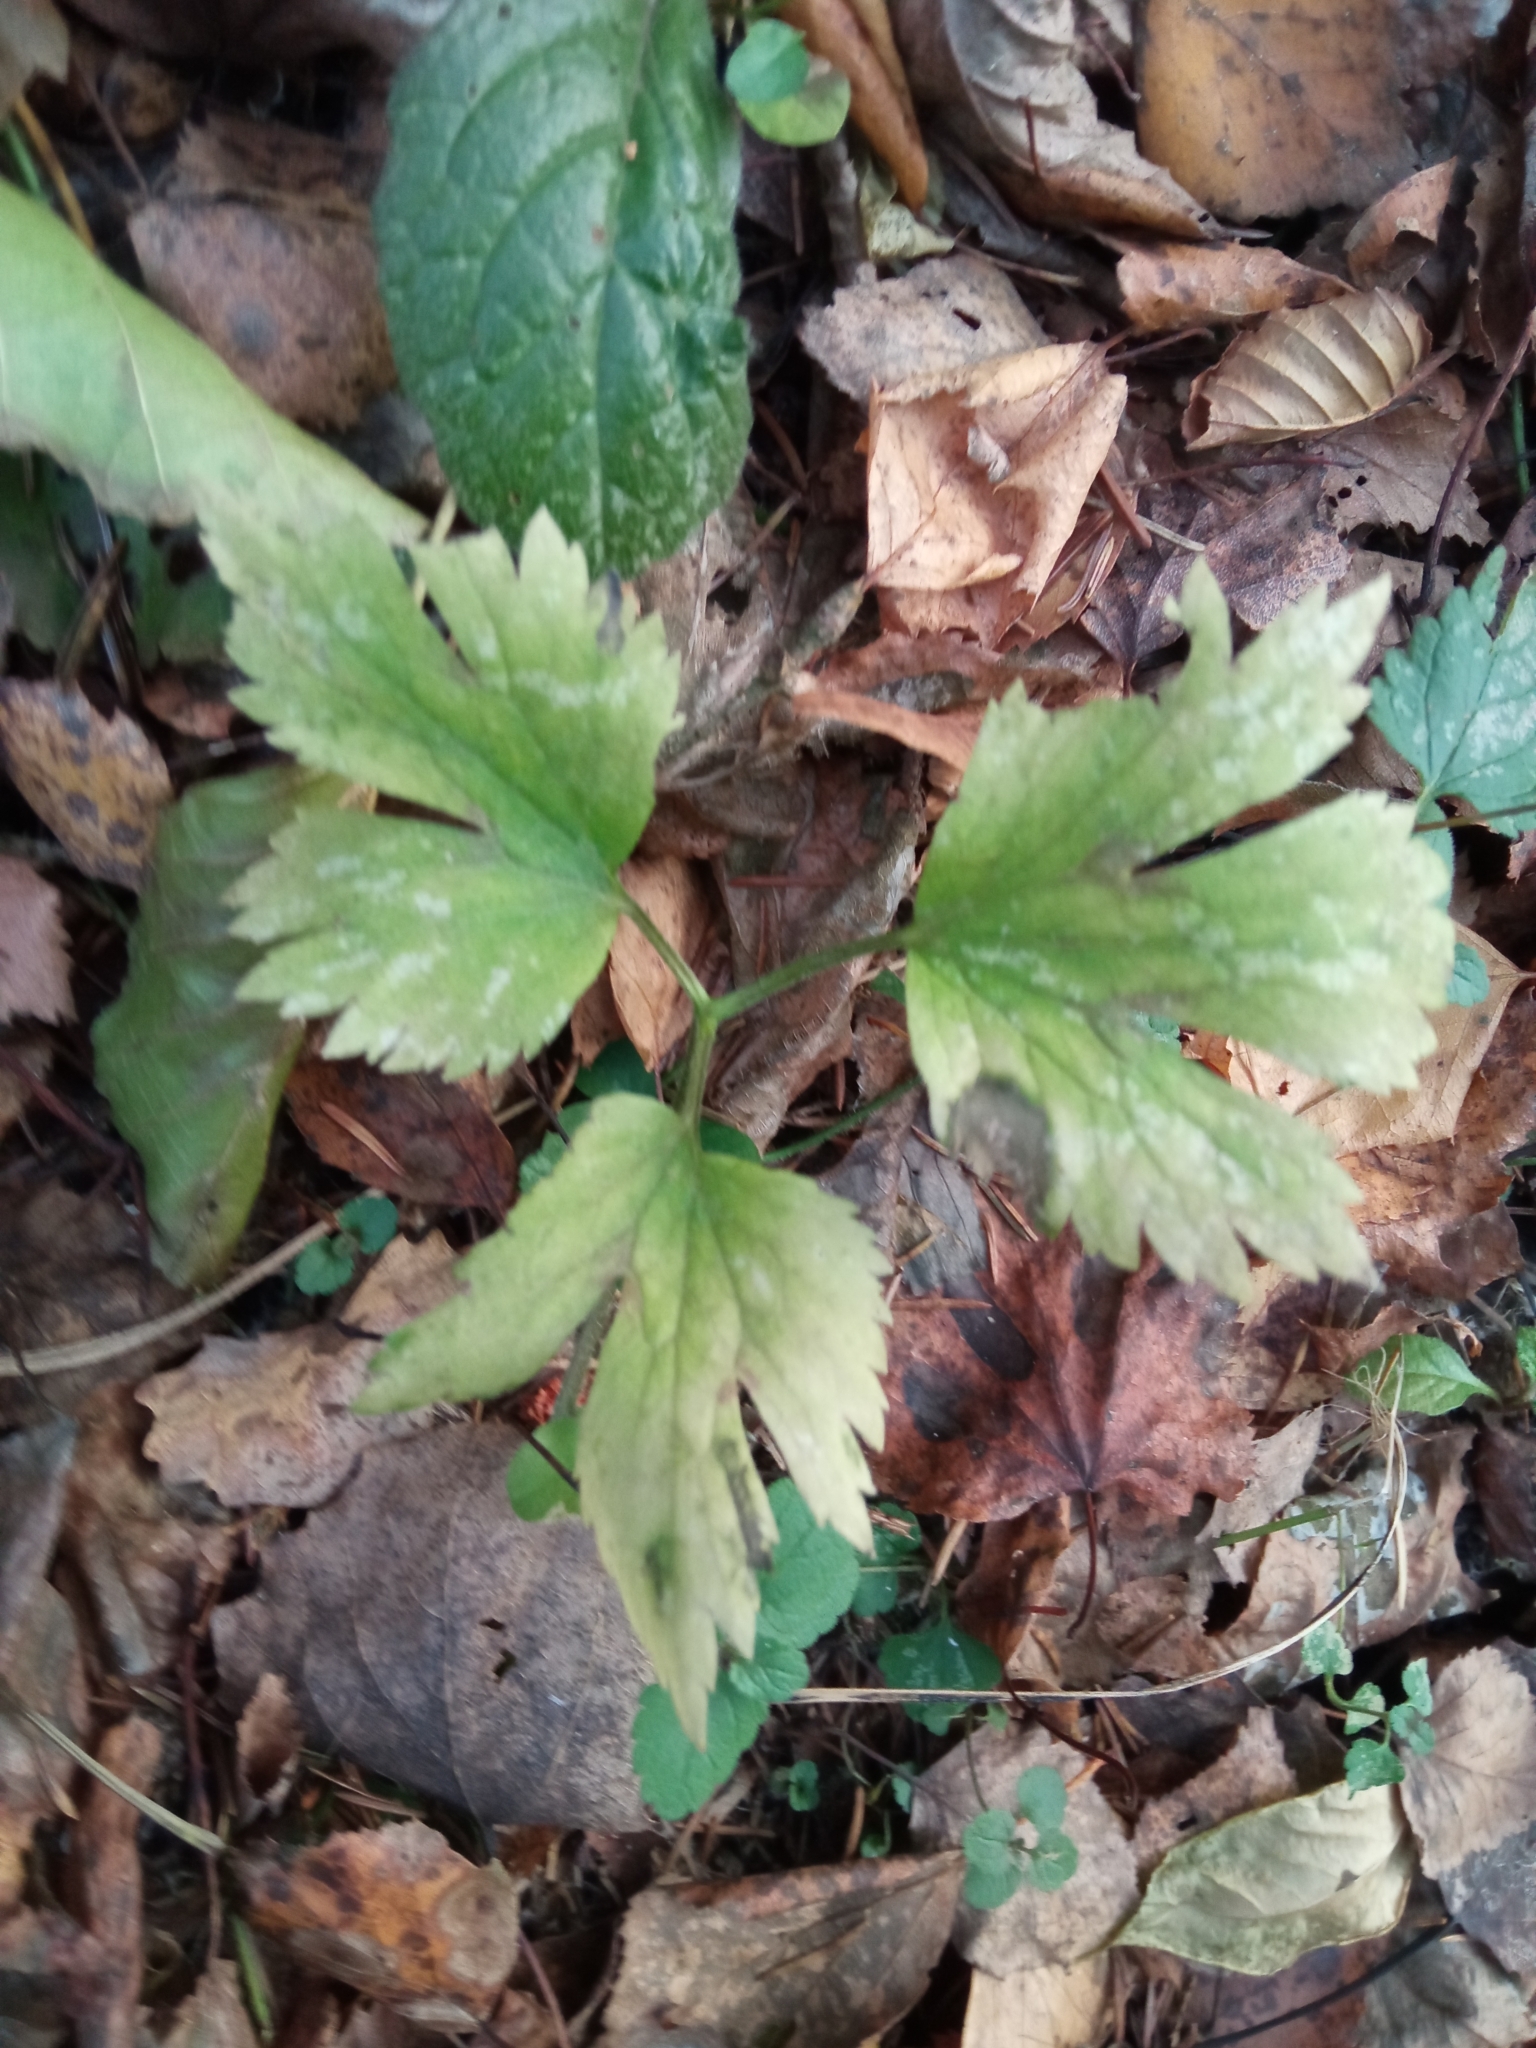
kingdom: Plantae
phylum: Tracheophyta
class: Magnoliopsida
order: Ranunculales
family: Ranunculaceae
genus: Ranunculus
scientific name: Ranunculus repens
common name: Creeping buttercup
